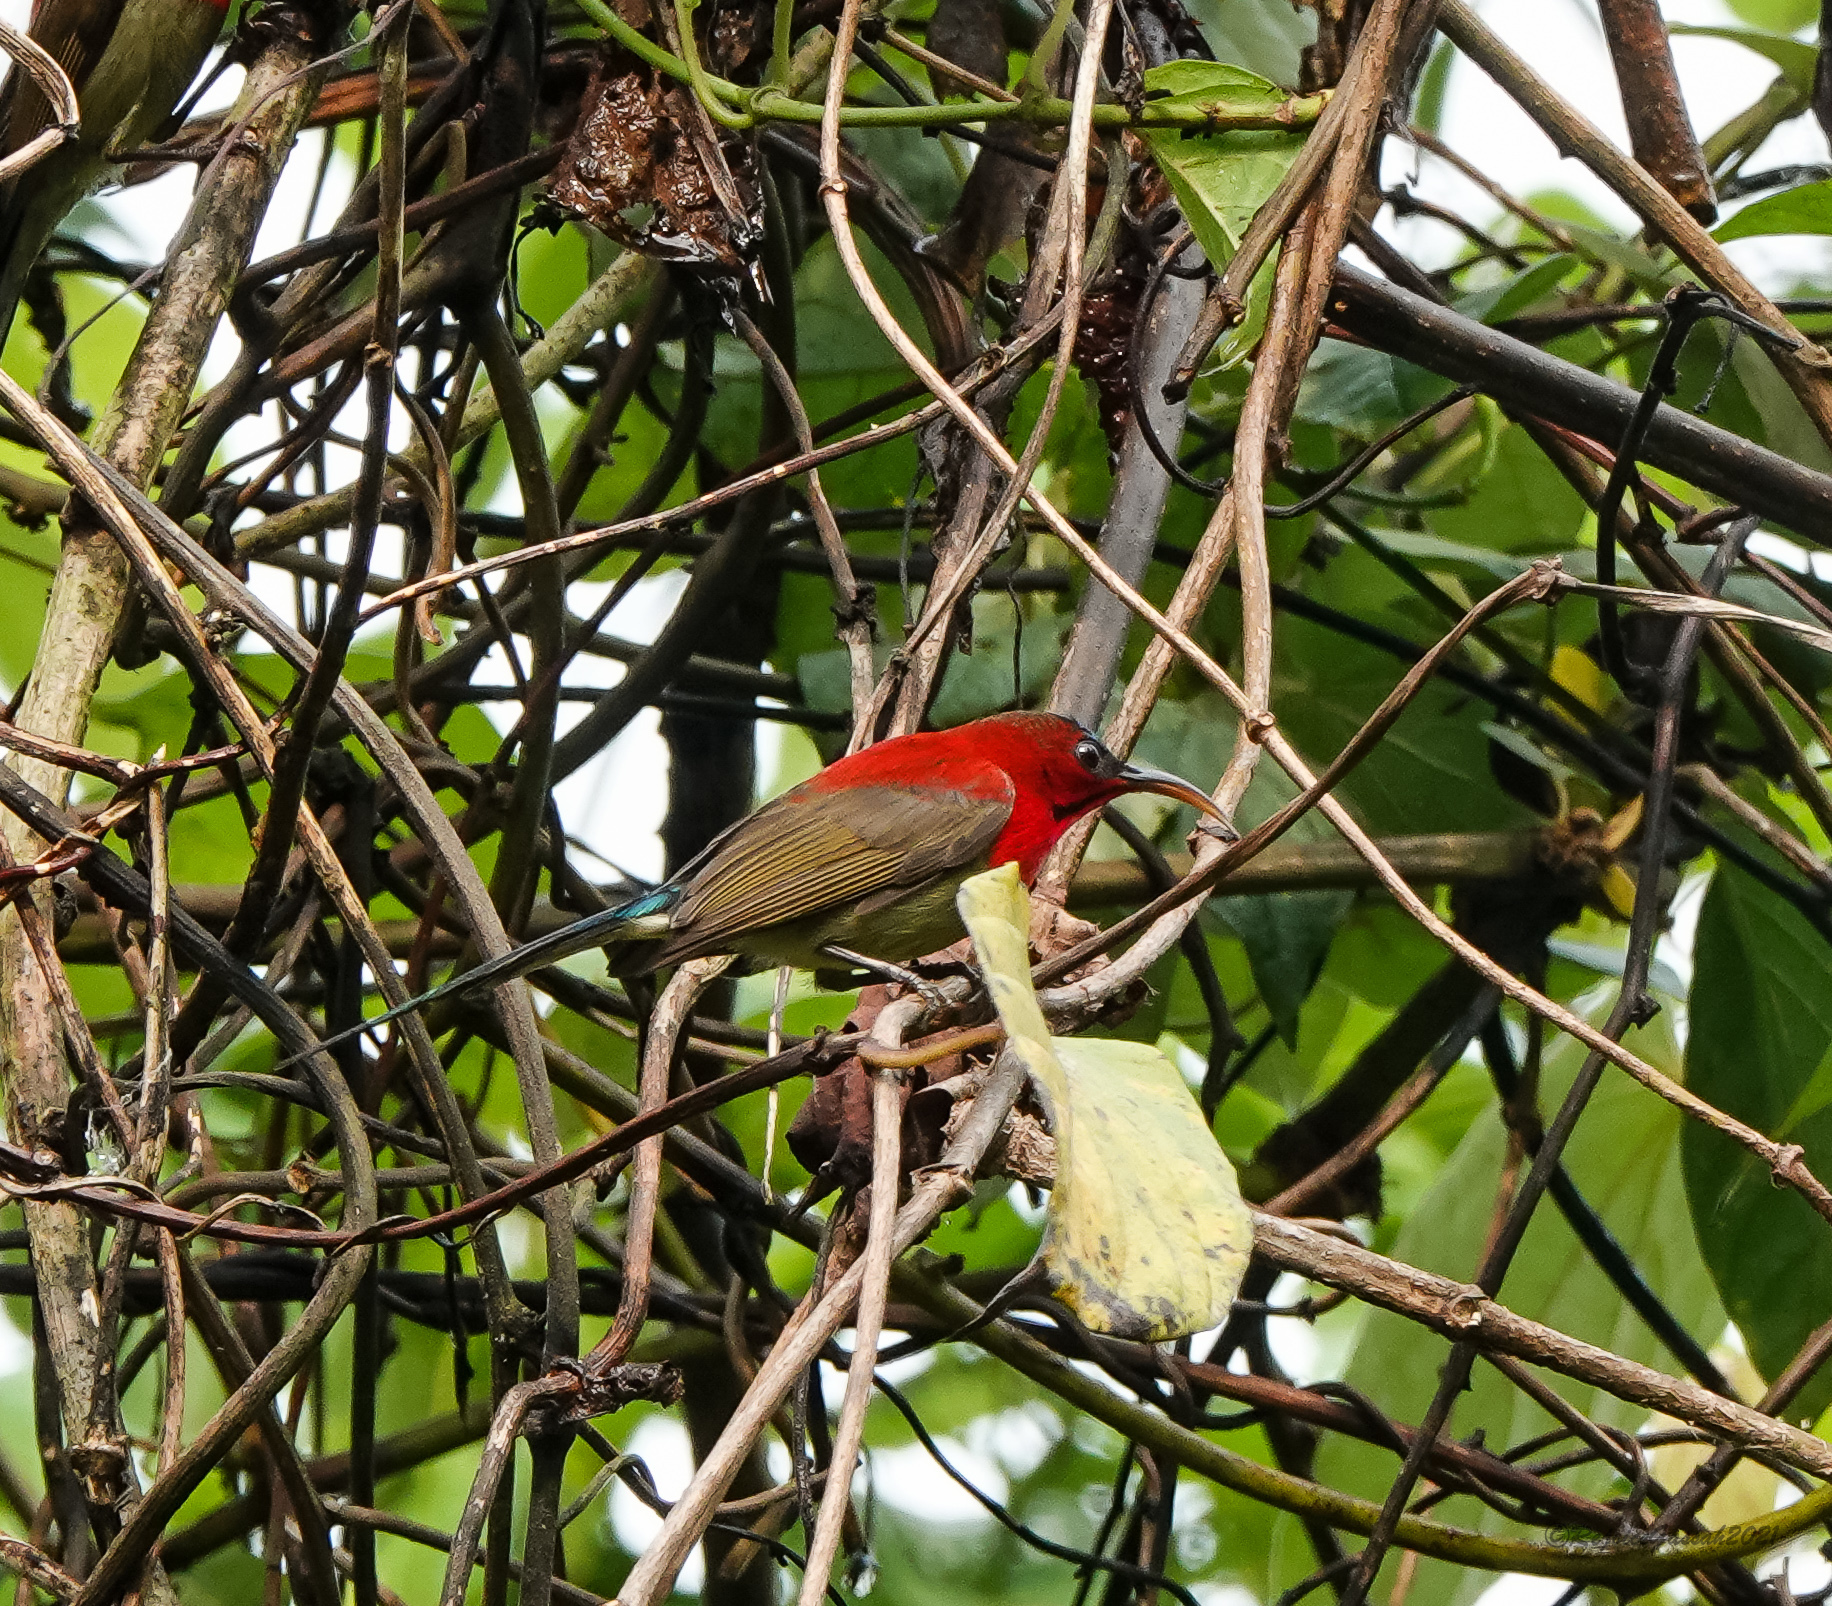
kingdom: Animalia
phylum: Chordata
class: Aves
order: Passeriformes
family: Nectariniidae
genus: Aethopyga
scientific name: Aethopyga siparaja
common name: Crimson sunbird
